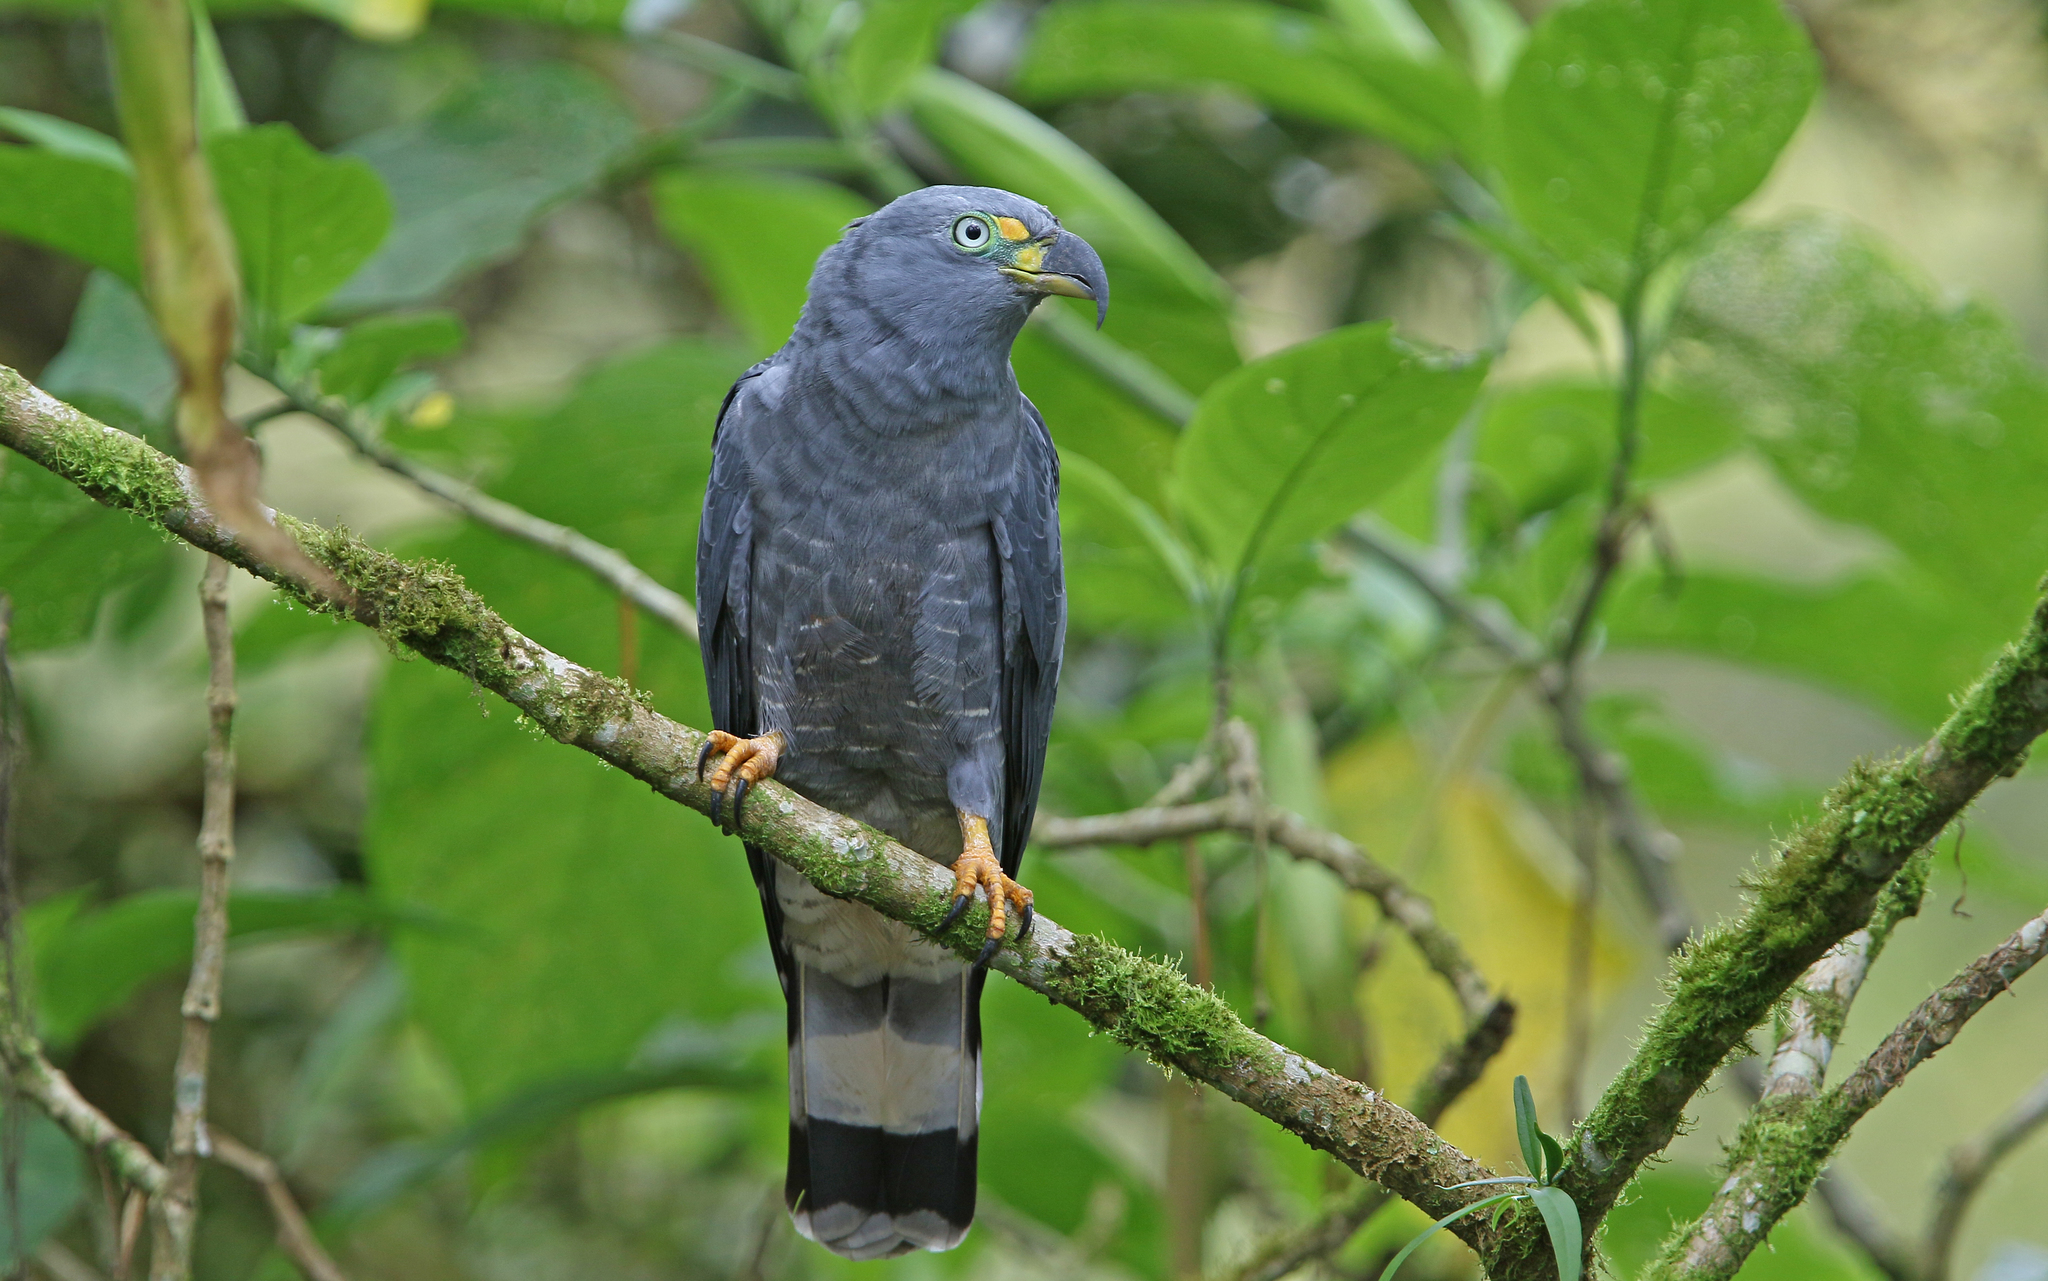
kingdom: Animalia
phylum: Chordata
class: Aves
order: Accipitriformes
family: Accipitridae
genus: Chondrohierax
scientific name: Chondrohierax uncinatus
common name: Hook-billed kite
